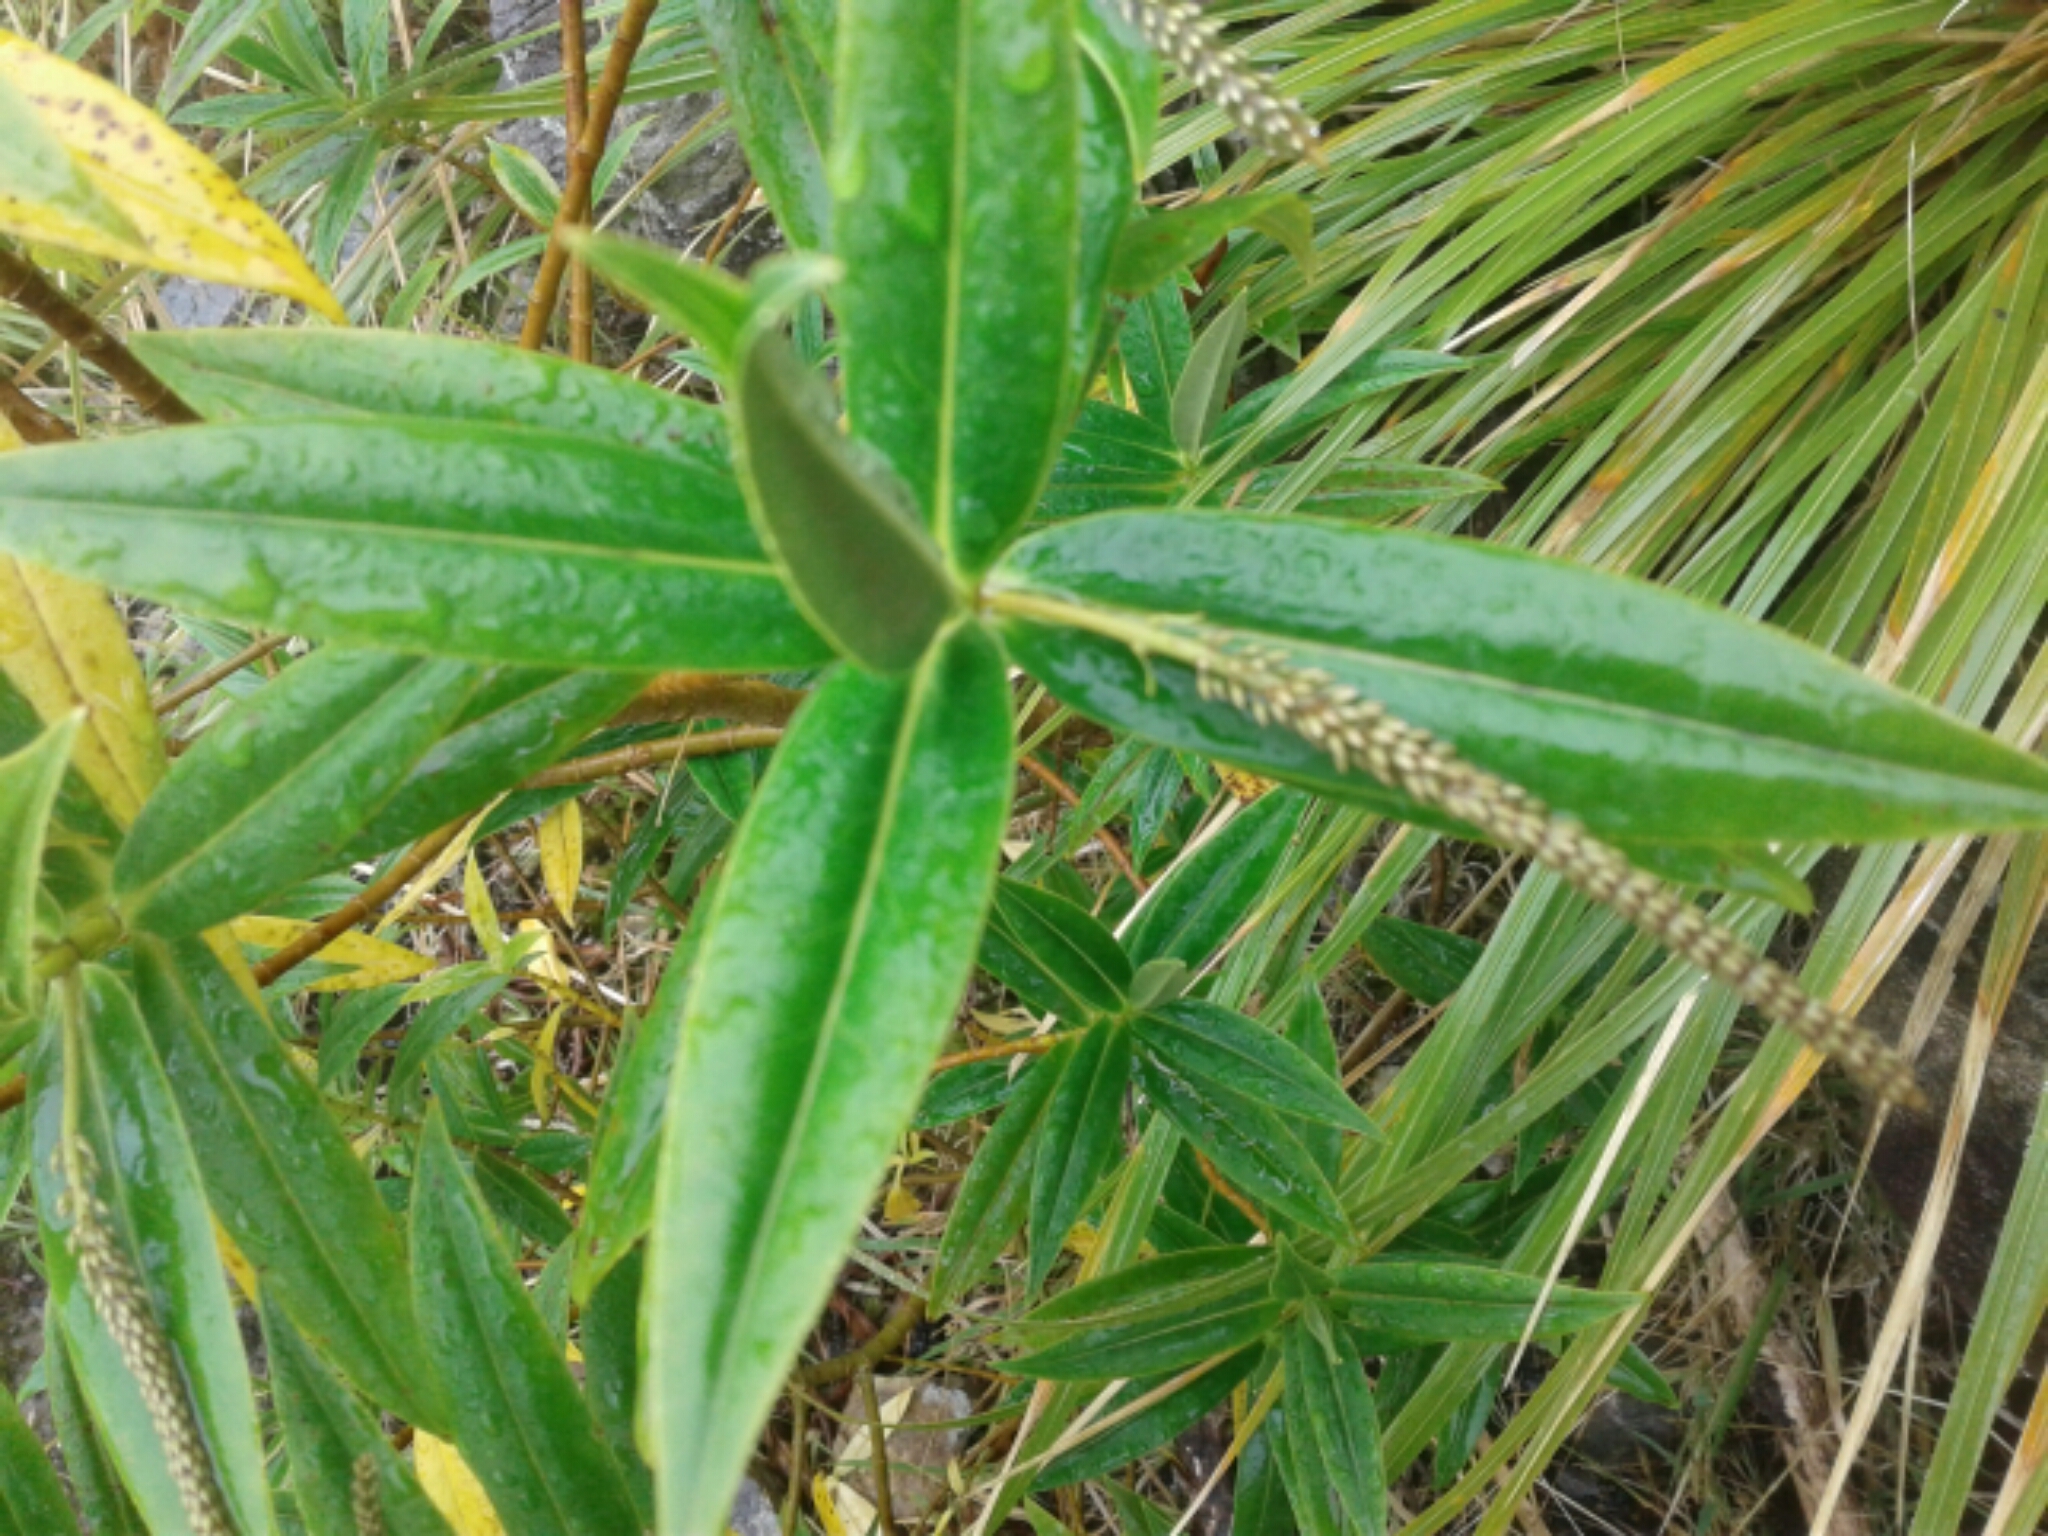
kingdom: Plantae
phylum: Tracheophyta
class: Magnoliopsida
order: Lamiales
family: Plantaginaceae
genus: Veronica
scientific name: Veronica salicifolia
